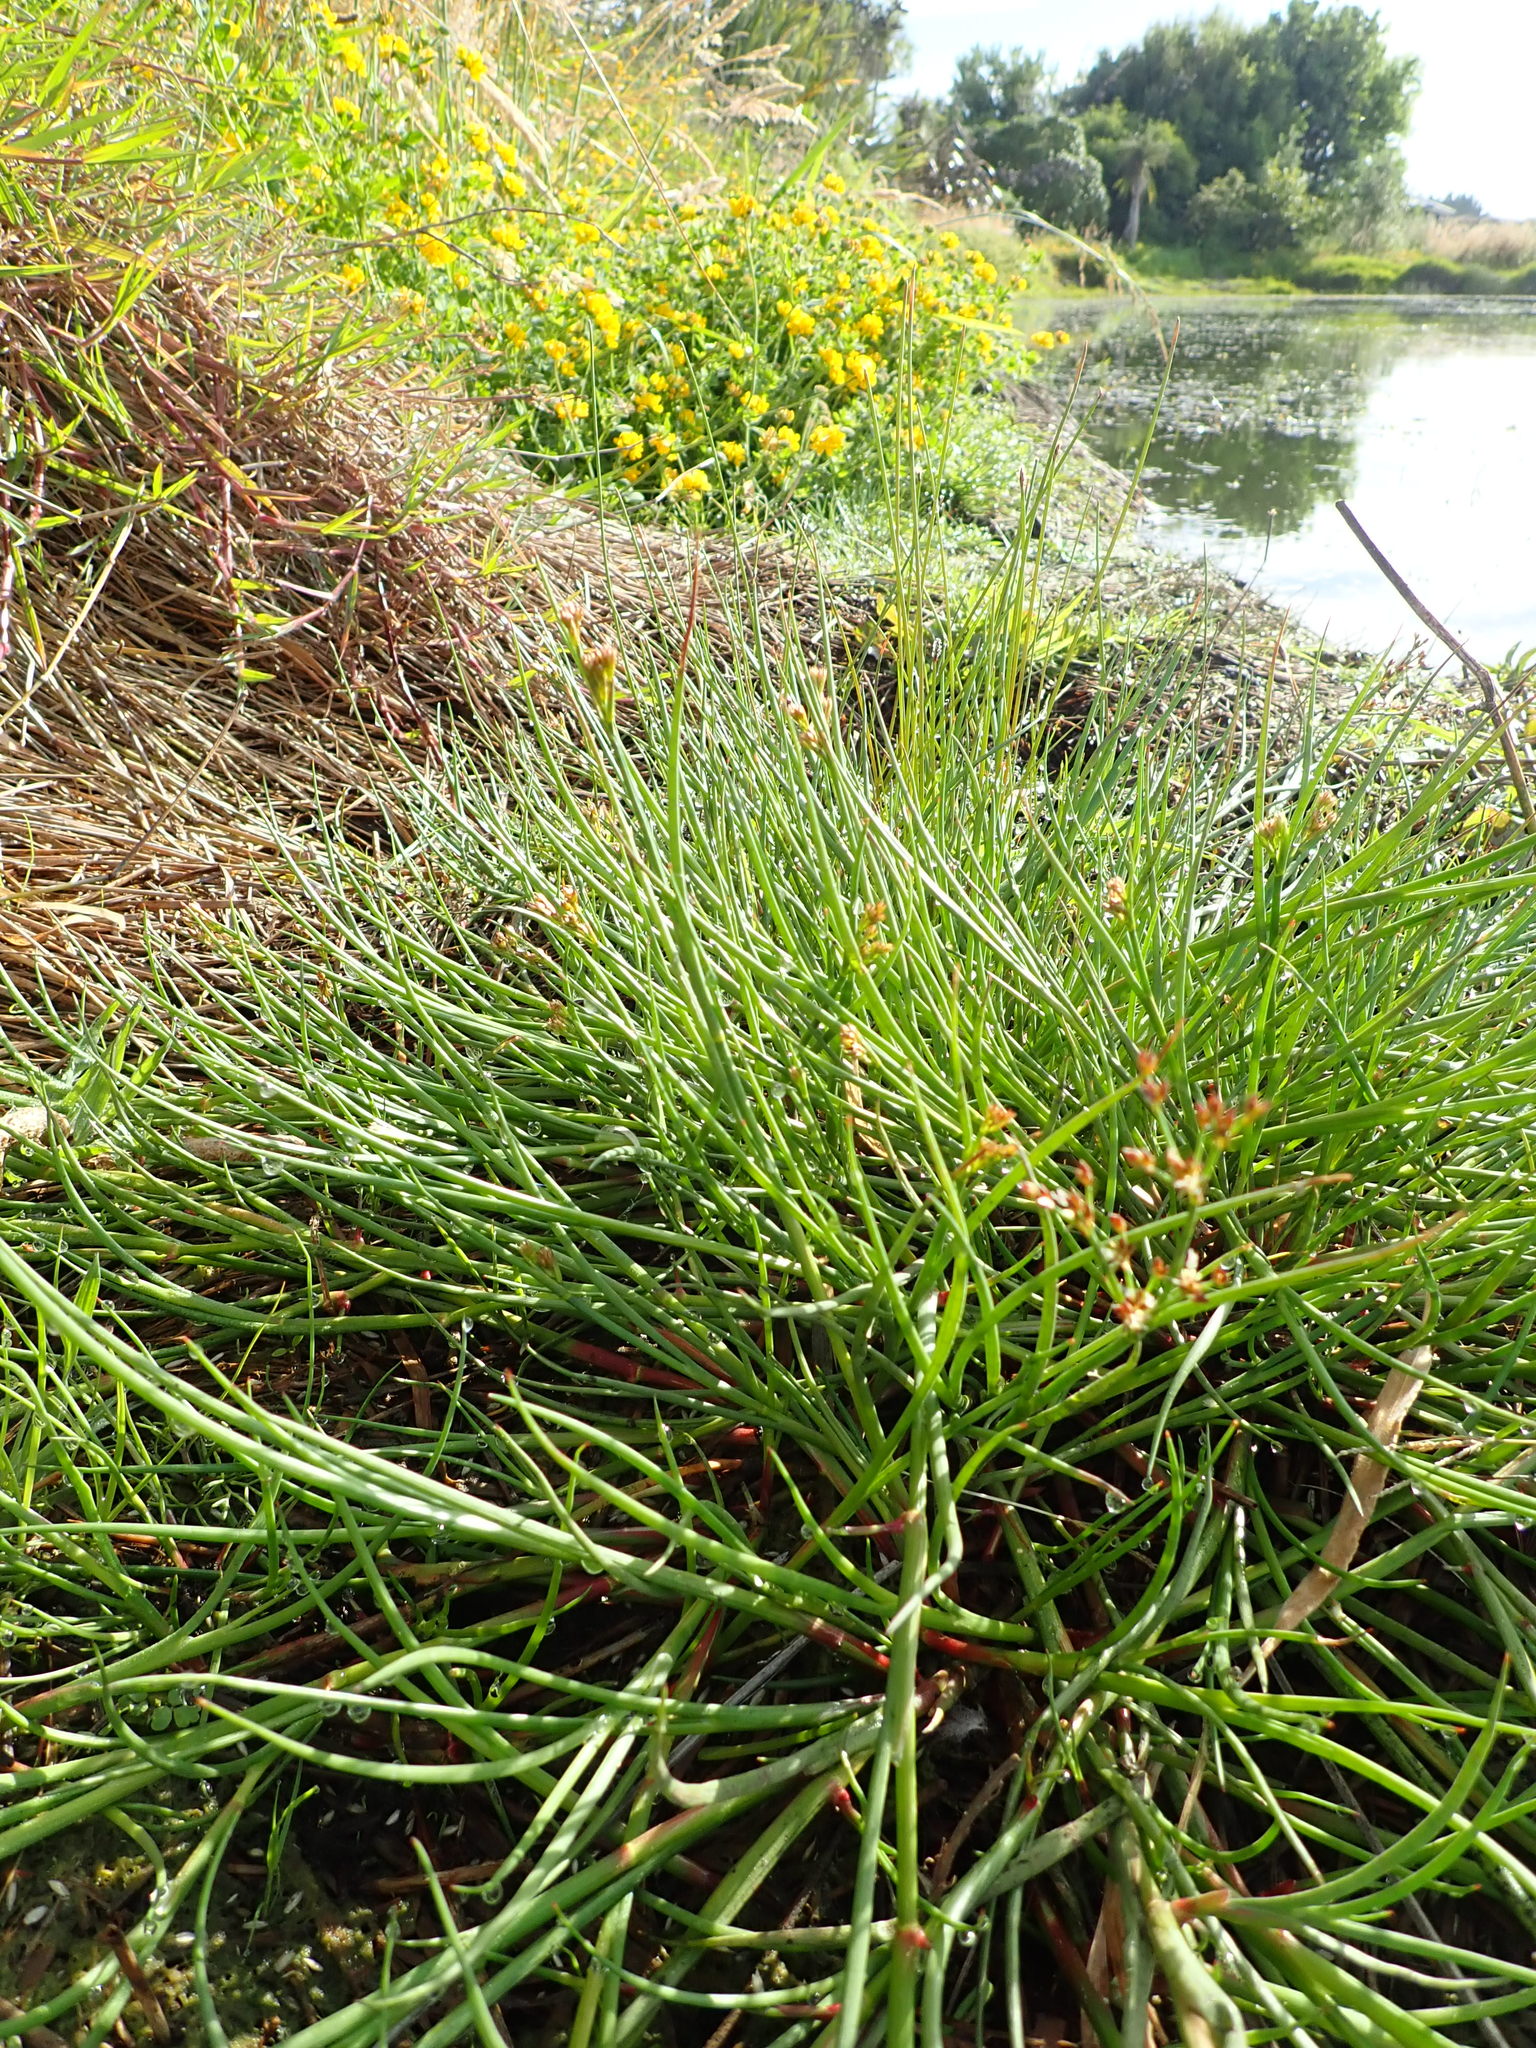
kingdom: Plantae
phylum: Tracheophyta
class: Liliopsida
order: Poales
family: Juncaceae
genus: Juncus
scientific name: Juncus articulatus
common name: Jointed rush
